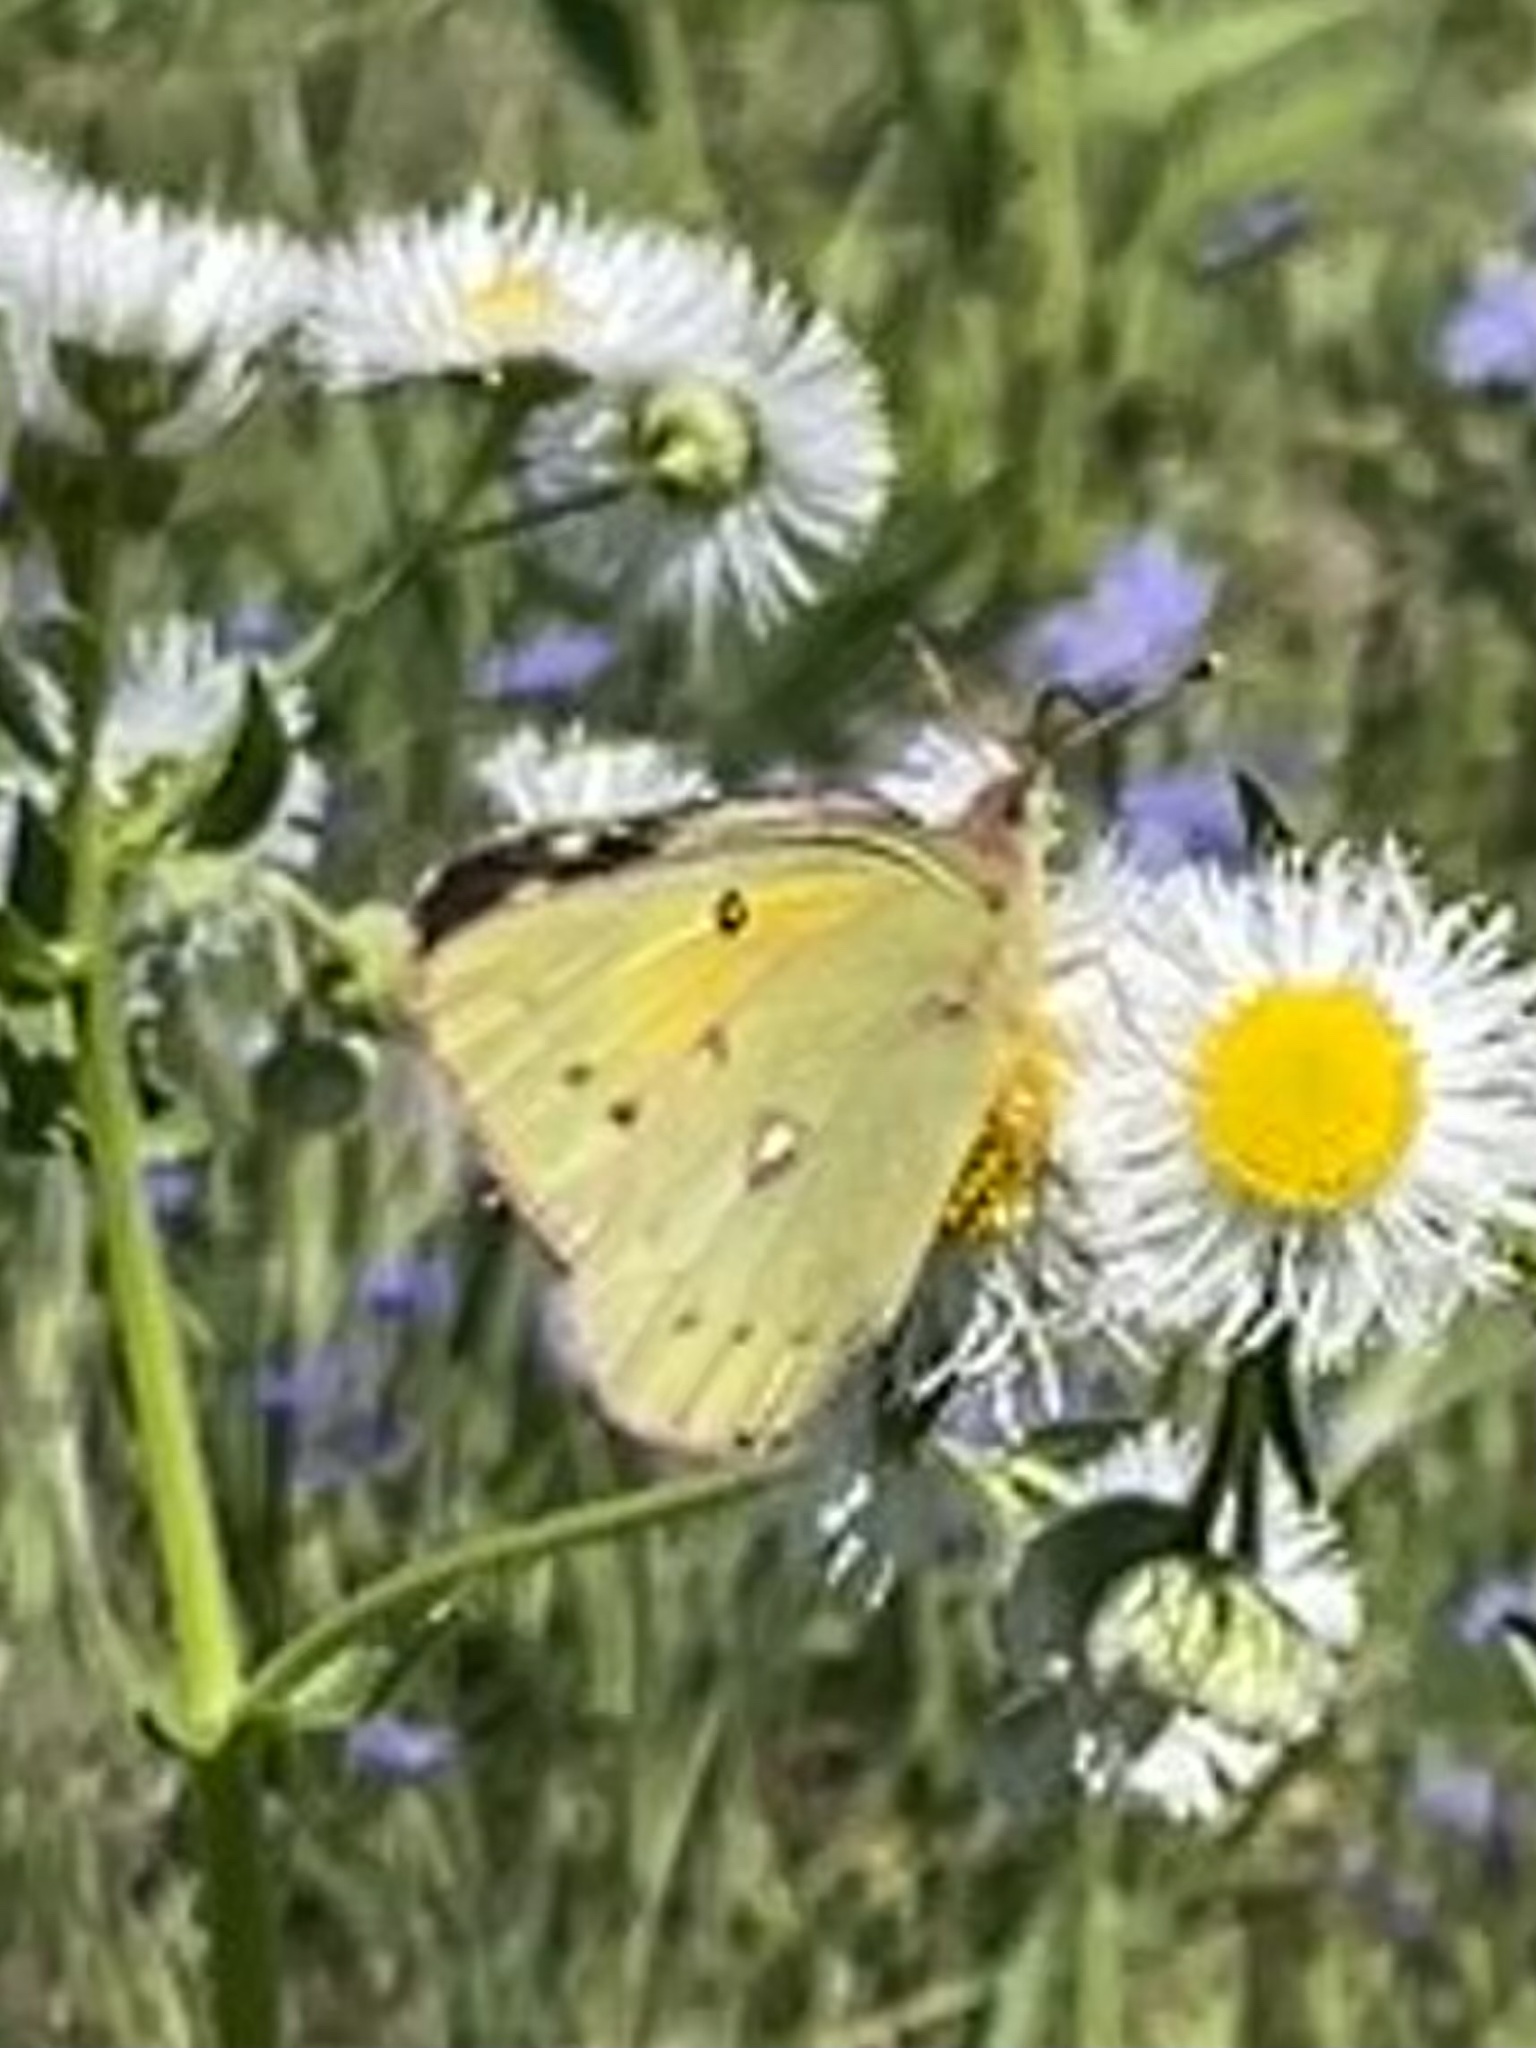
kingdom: Animalia
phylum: Arthropoda
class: Insecta
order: Lepidoptera
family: Pieridae
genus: Colias
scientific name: Colias eurytheme
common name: Alfalfa butterfly
